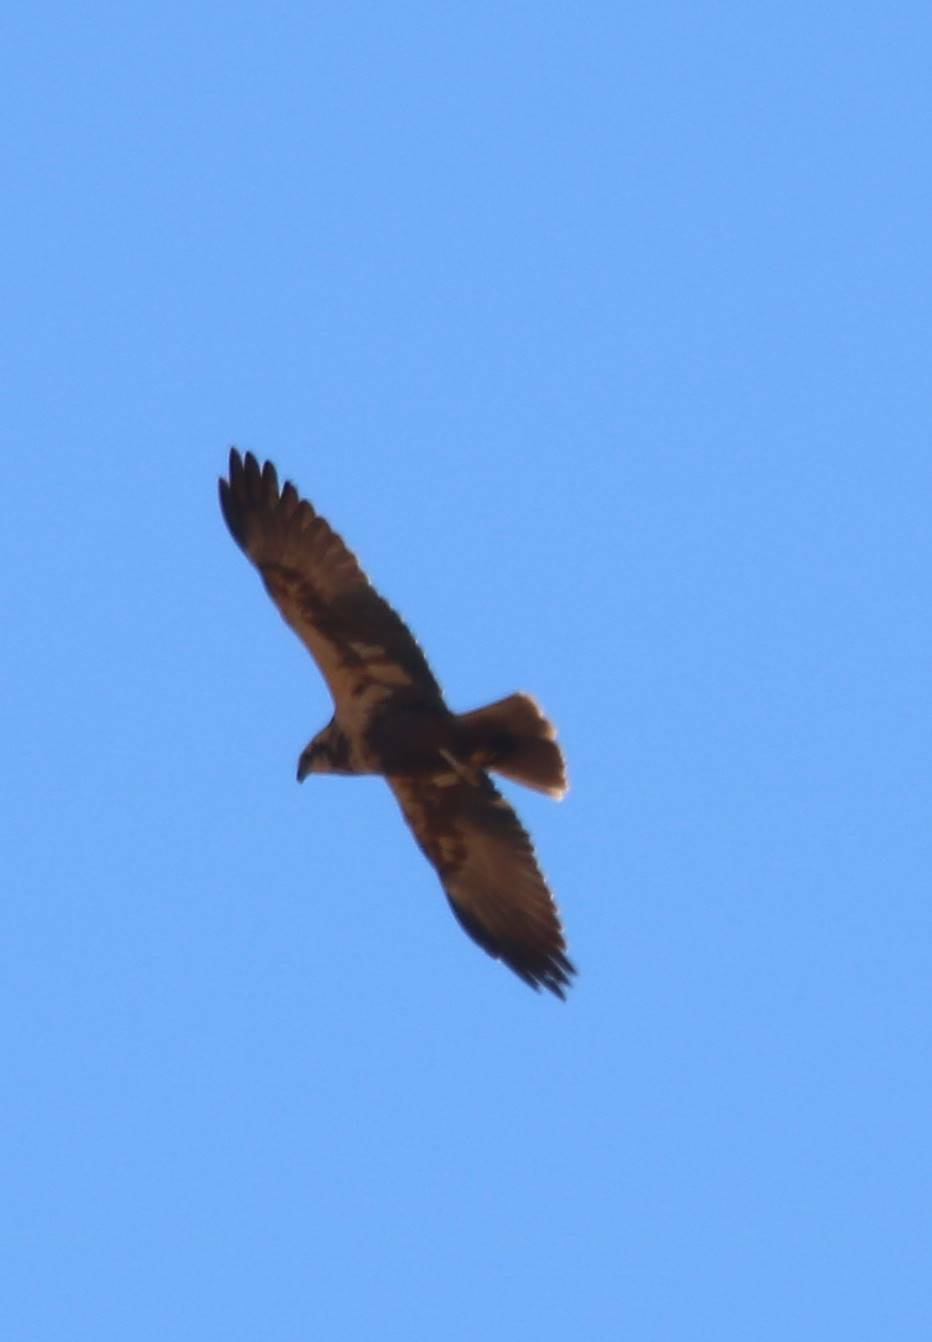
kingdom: Animalia
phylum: Chordata
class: Aves
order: Accipitriformes
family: Accipitridae
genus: Circus
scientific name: Circus aeruginosus
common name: Western marsh harrier
